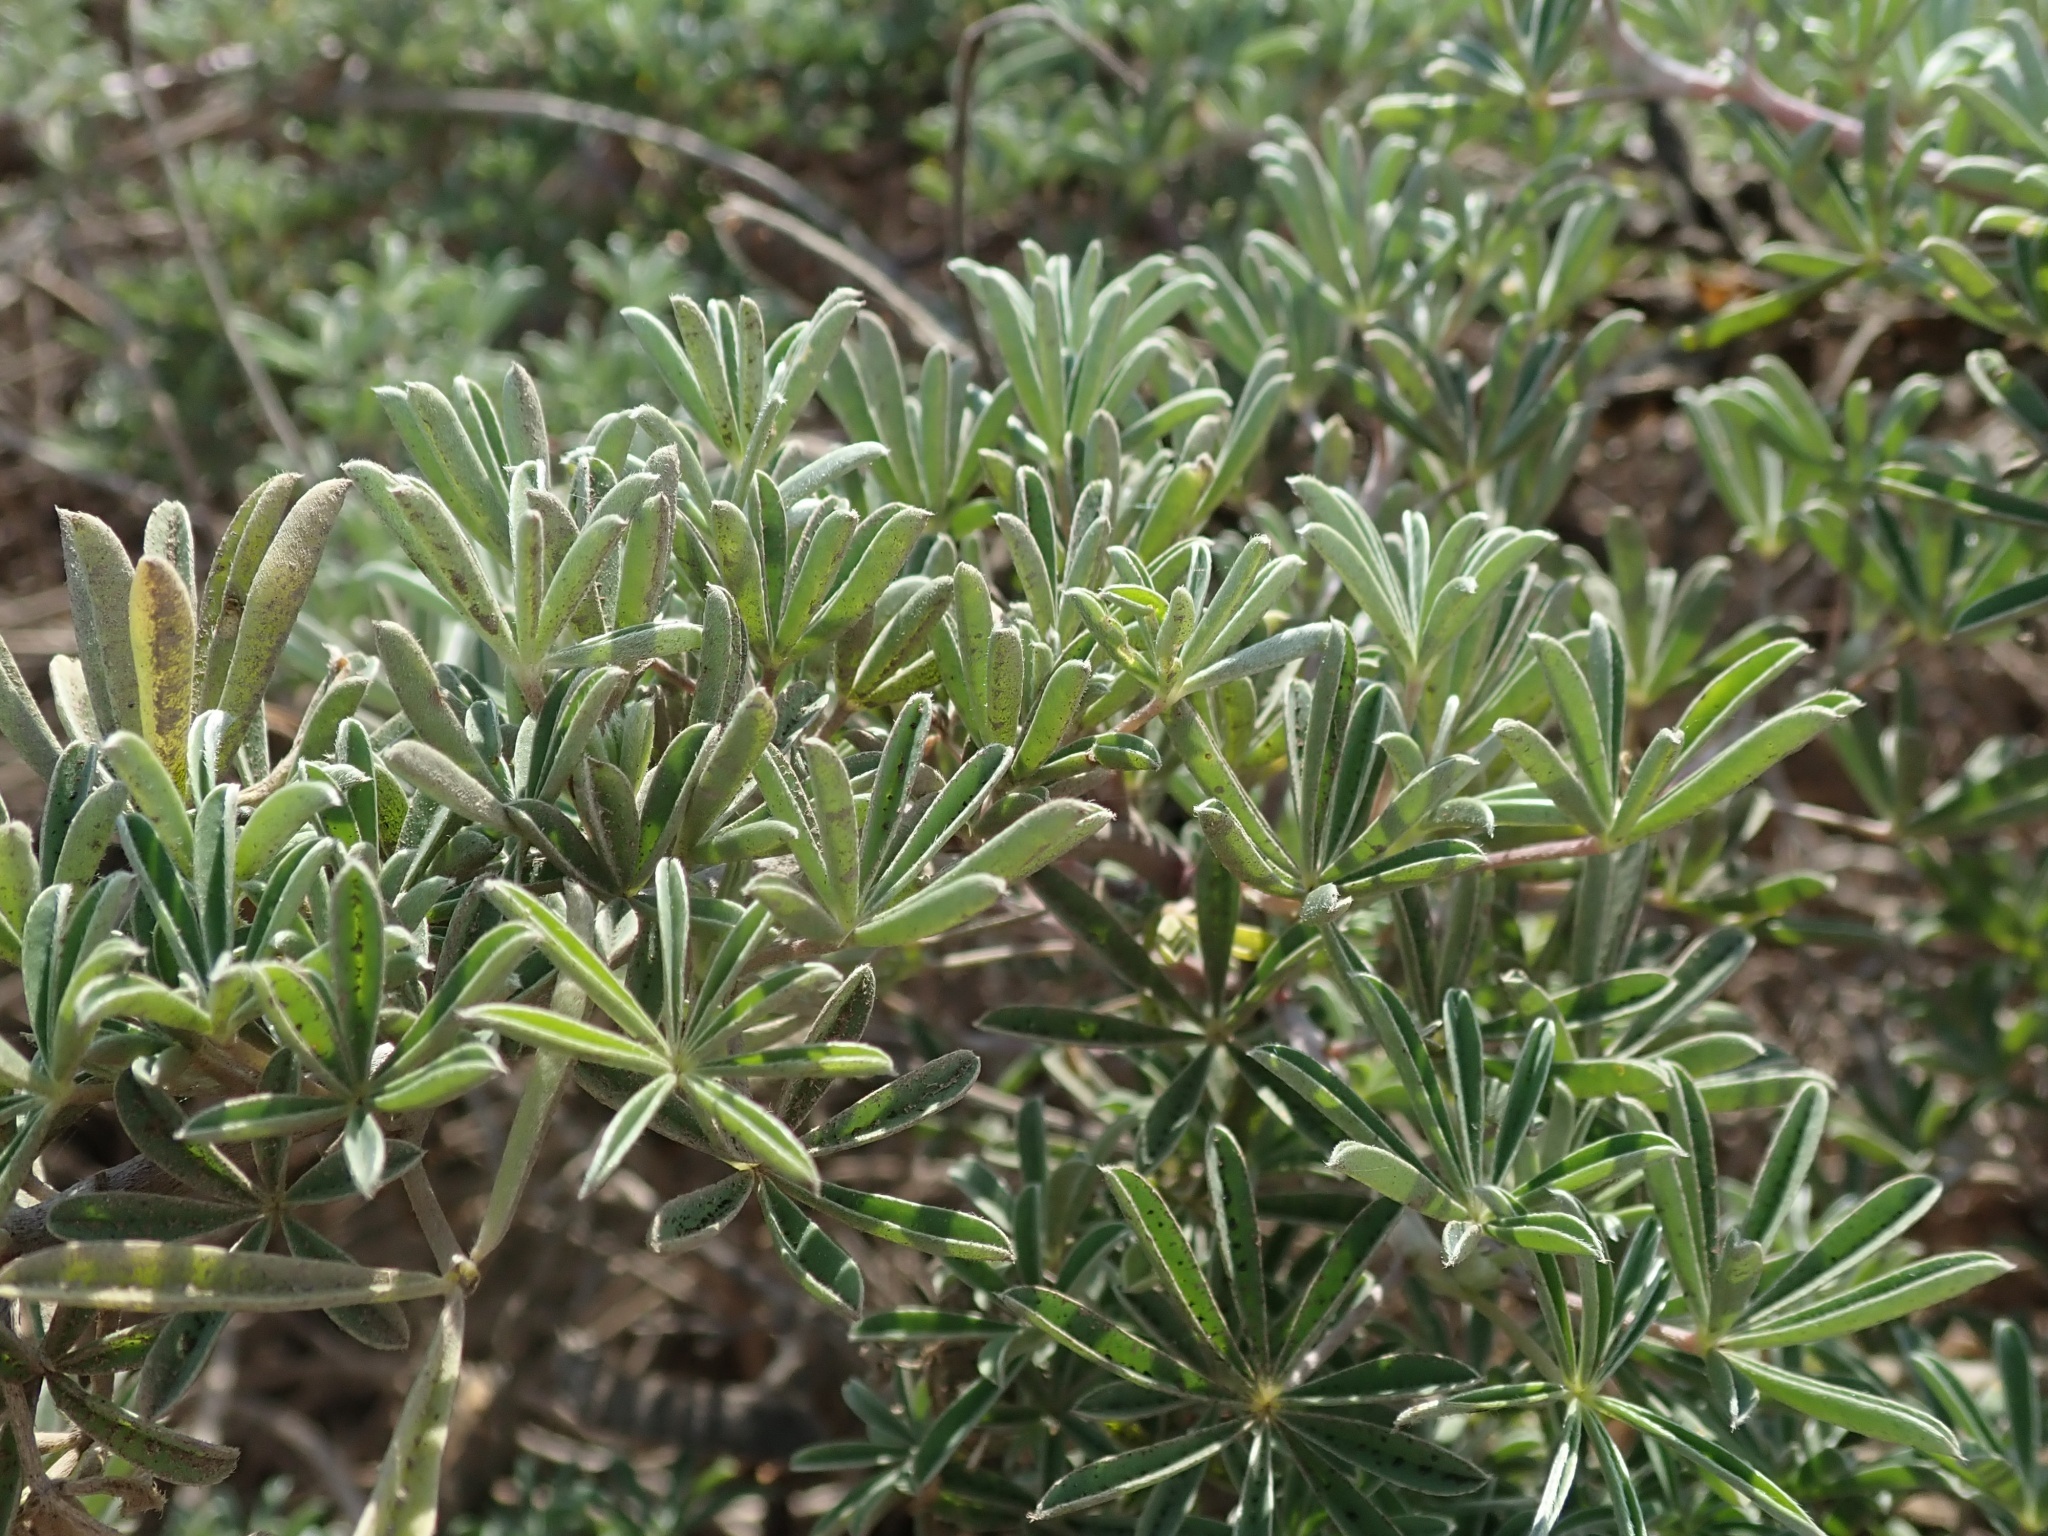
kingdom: Plantae
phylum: Tracheophyta
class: Magnoliopsida
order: Fabales
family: Fabaceae
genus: Lupinus
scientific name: Lupinus arboreus
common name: Yellow bush lupine
